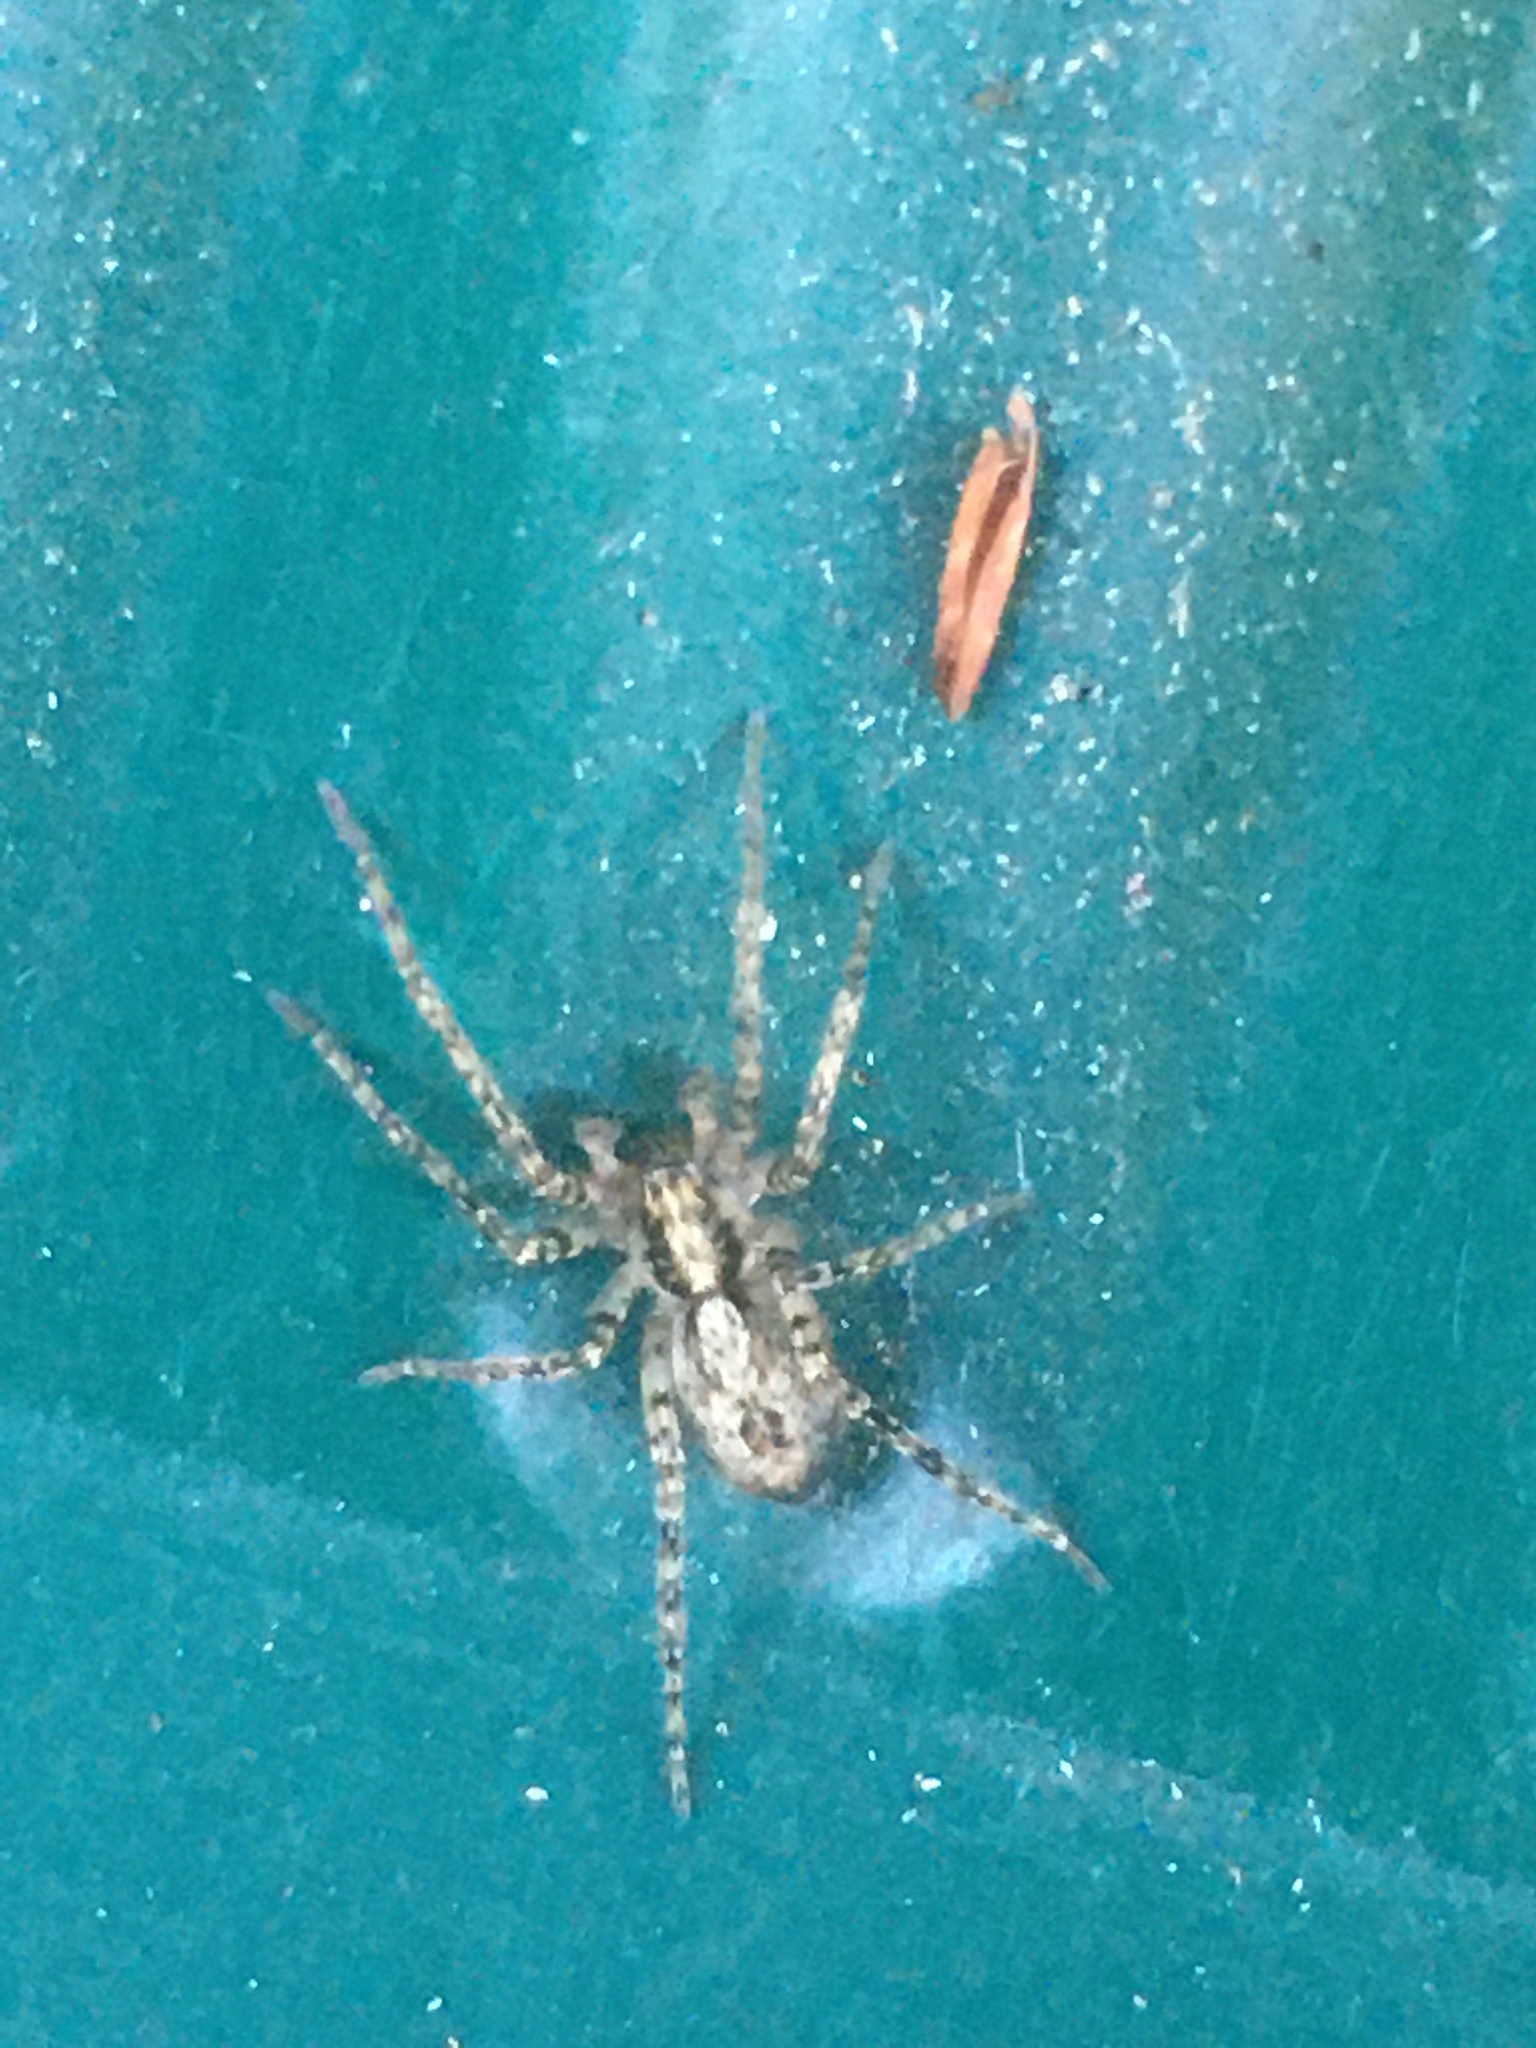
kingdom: Animalia
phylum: Arthropoda
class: Arachnida
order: Araneae
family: Anyphaenidae
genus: Anyphaena
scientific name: Anyphaena accentuata
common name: Buzzing spider
